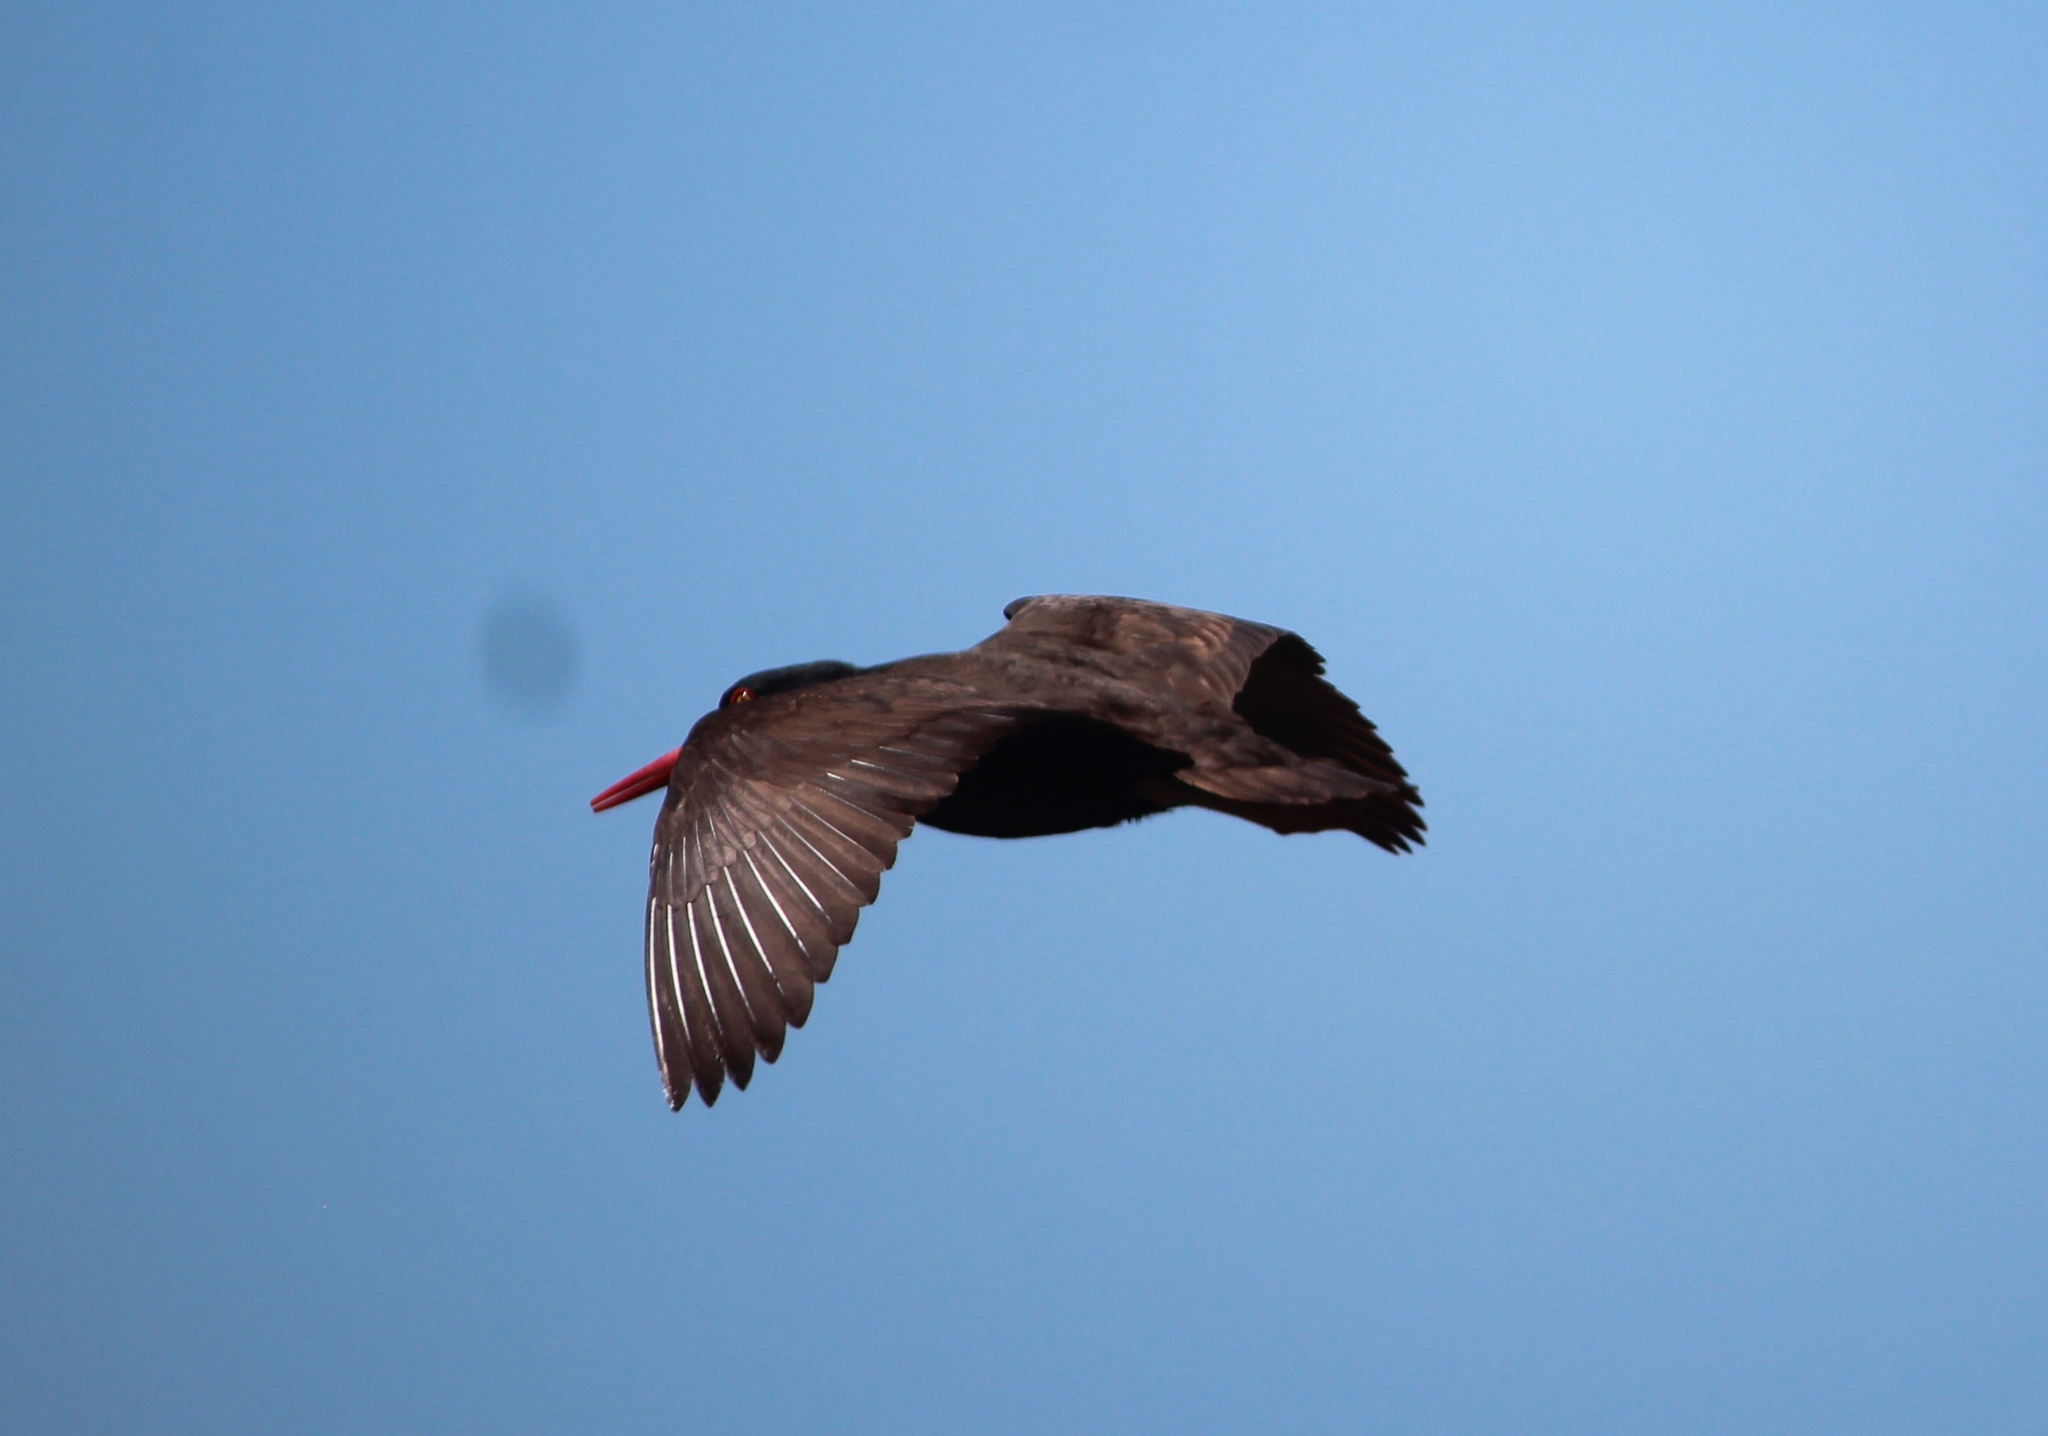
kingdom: Animalia
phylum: Chordata
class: Aves
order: Charadriiformes
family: Haematopodidae
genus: Haematopus
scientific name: Haematopus bachmani
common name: Black oystercatcher
